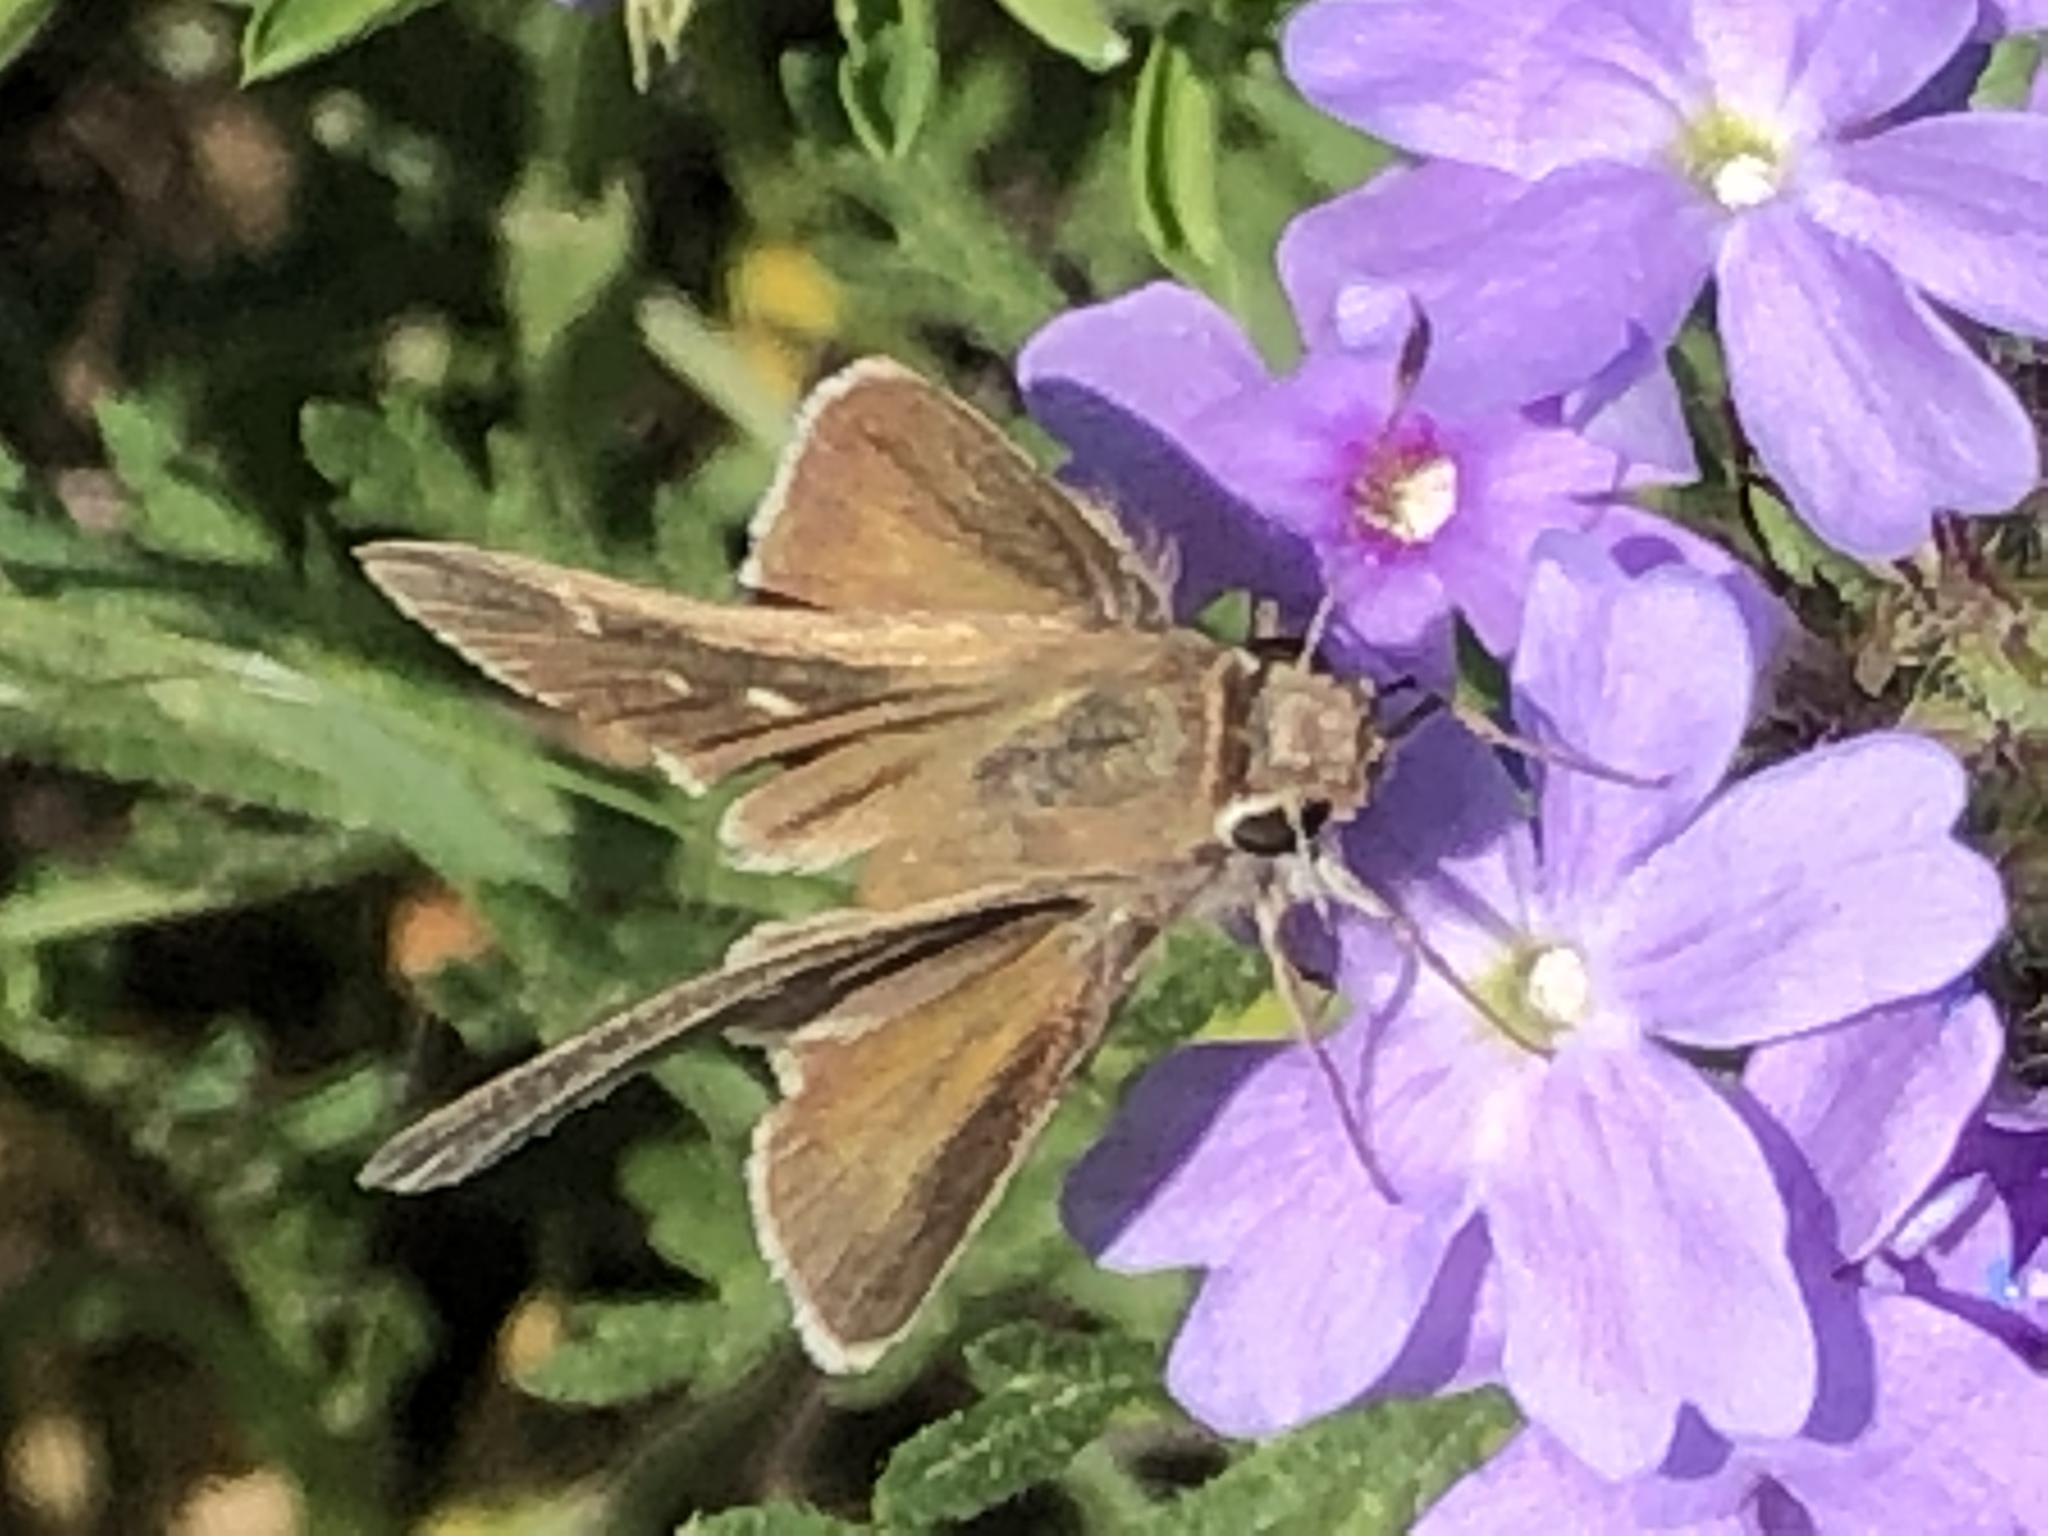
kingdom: Animalia
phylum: Arthropoda
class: Insecta
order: Lepidoptera
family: Hesperiidae
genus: Lerodea
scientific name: Lerodea eufala
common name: Eufala skipper
